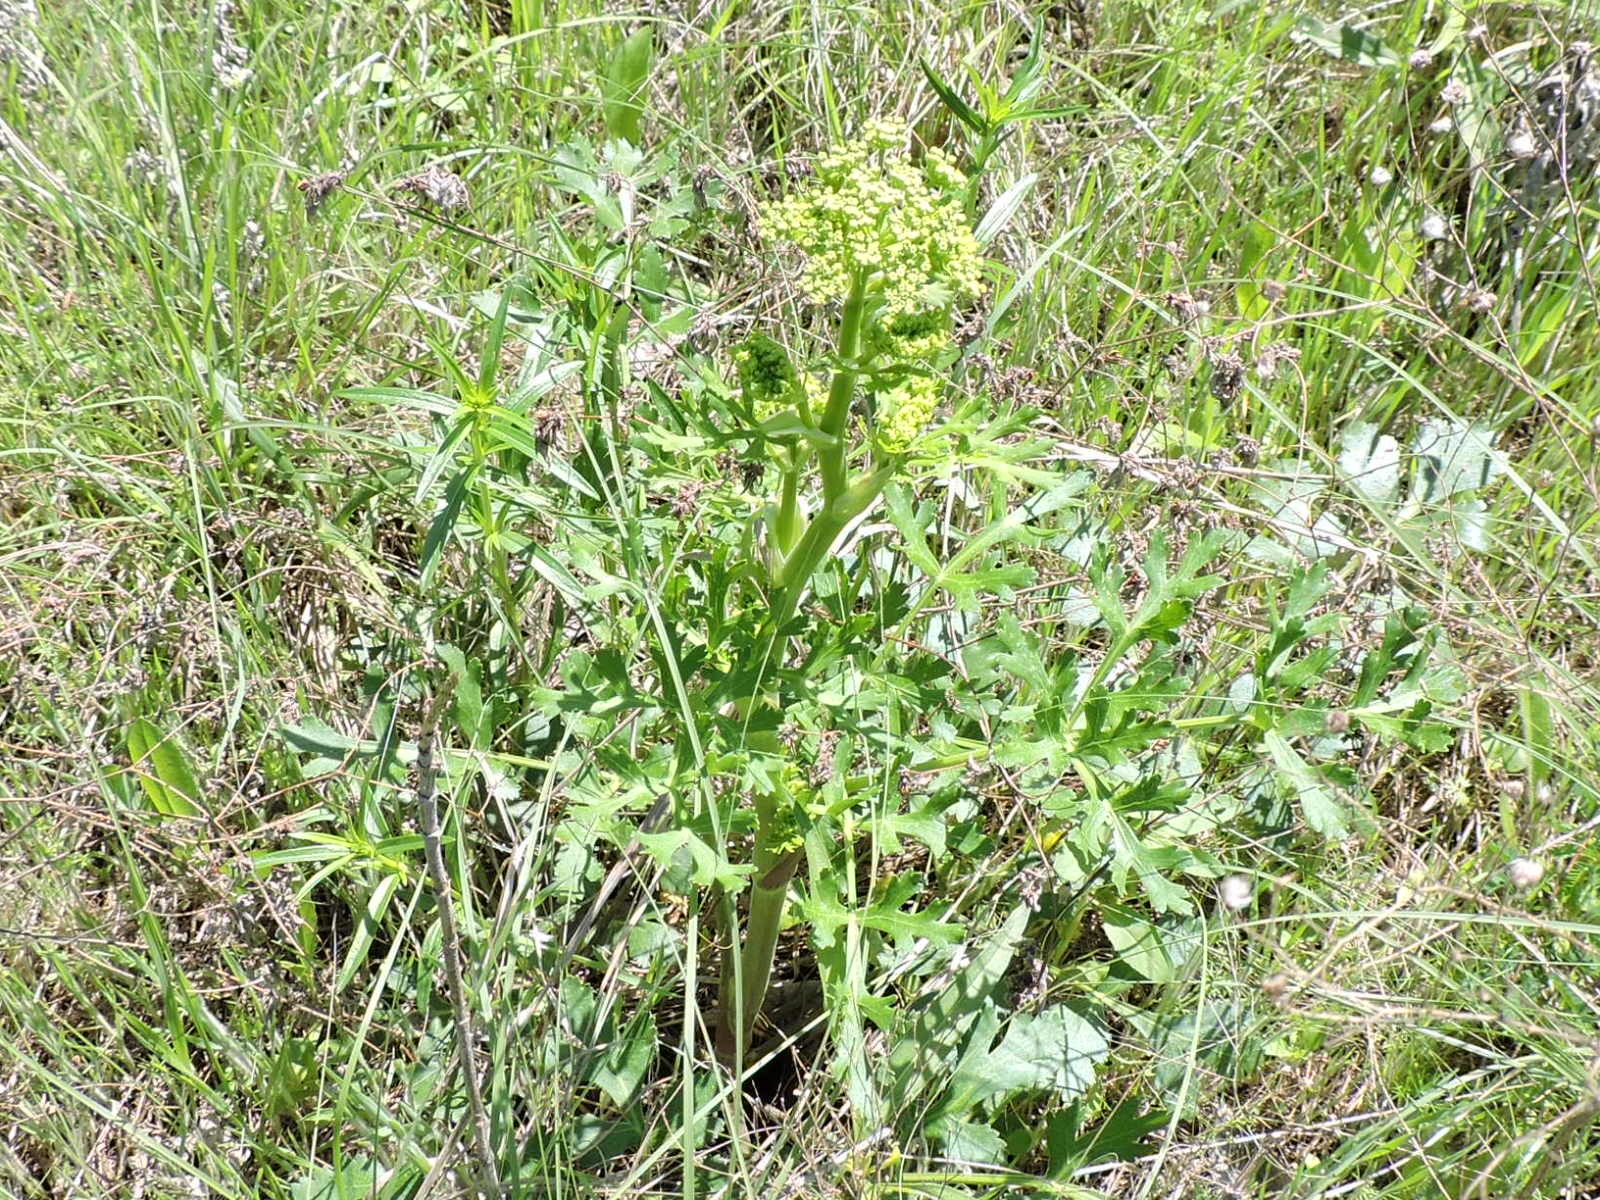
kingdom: Plantae
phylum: Tracheophyta
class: Magnoliopsida
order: Apiales
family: Apiaceae
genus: Polytaenia
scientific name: Polytaenia texana
